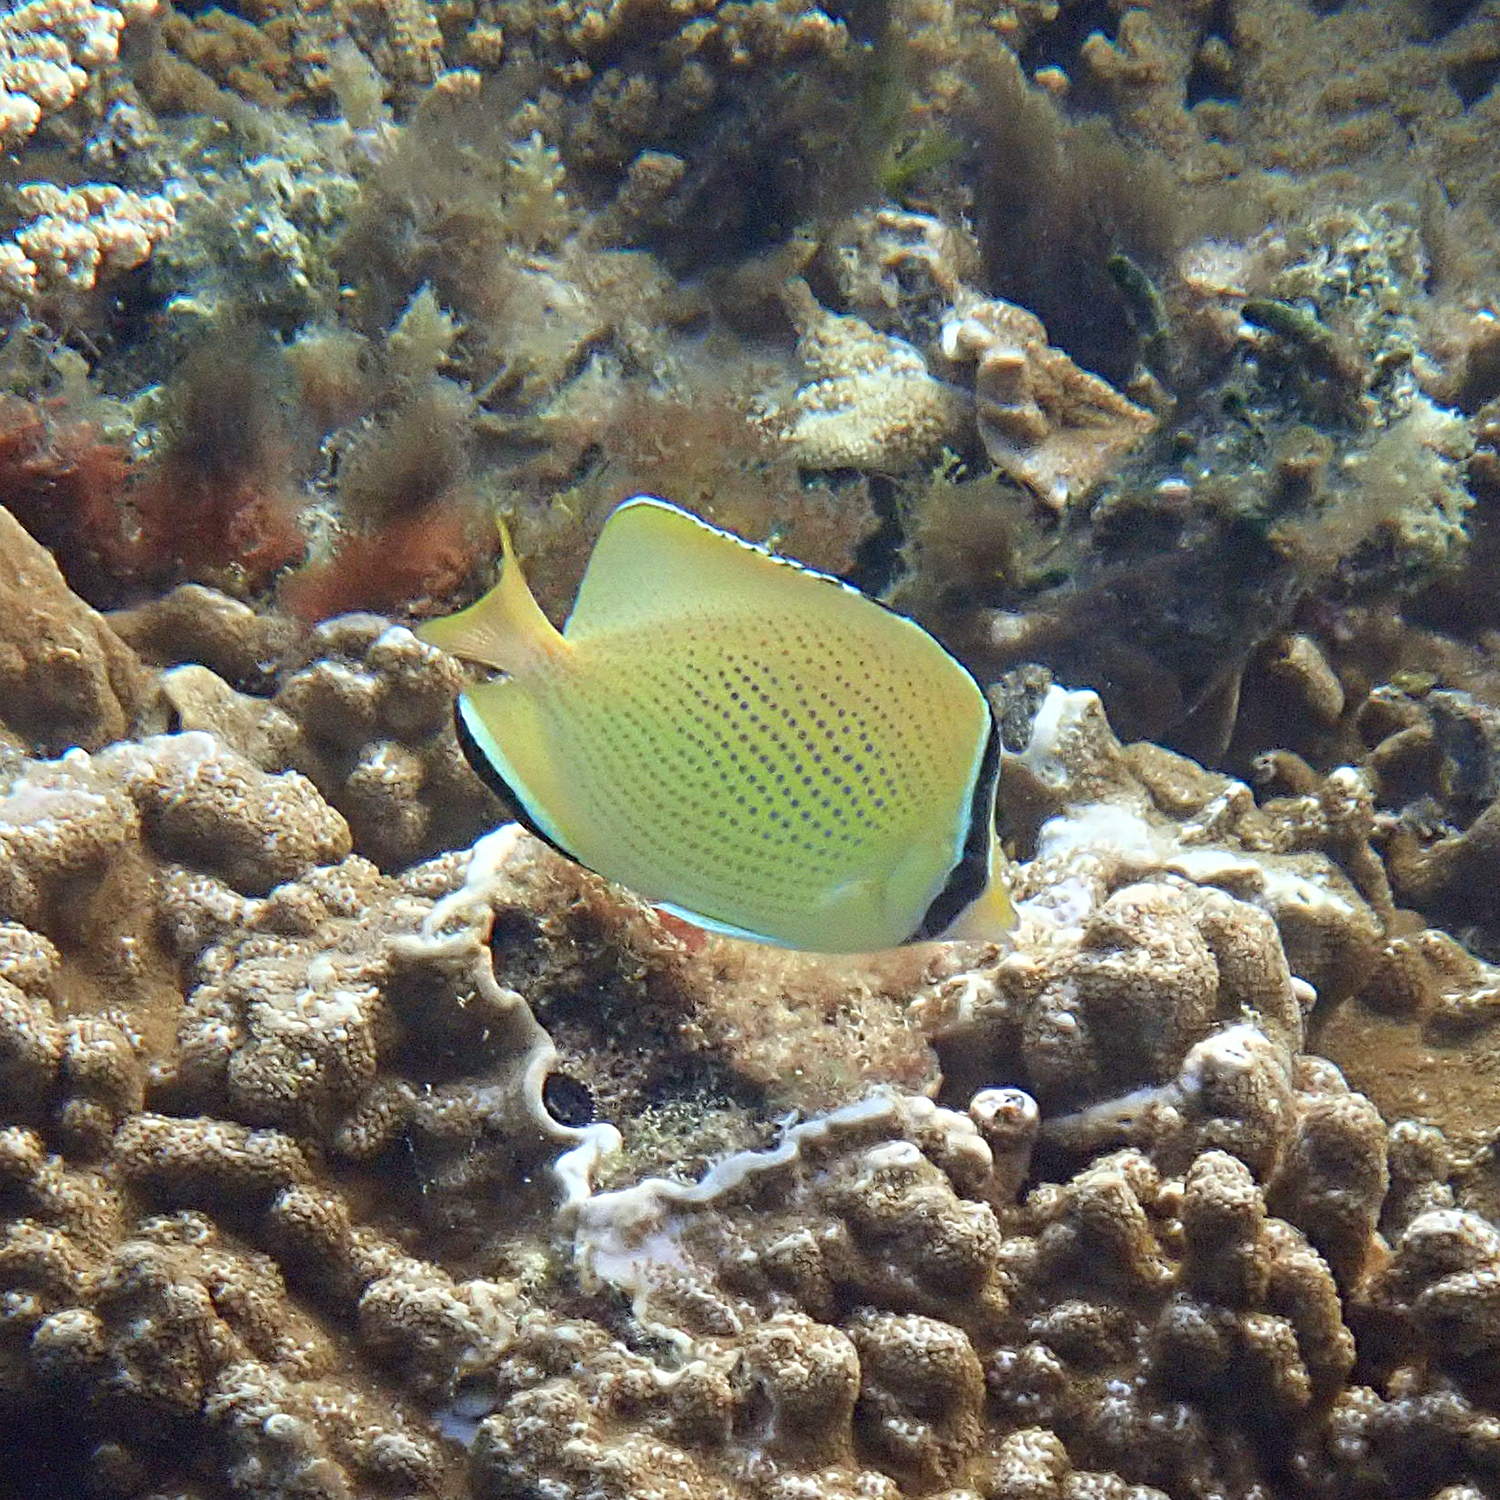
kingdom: Animalia
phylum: Chordata
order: Perciformes
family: Chaetodontidae
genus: Chaetodon
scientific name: Chaetodon citrinellus
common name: Speckled butterflyfish
